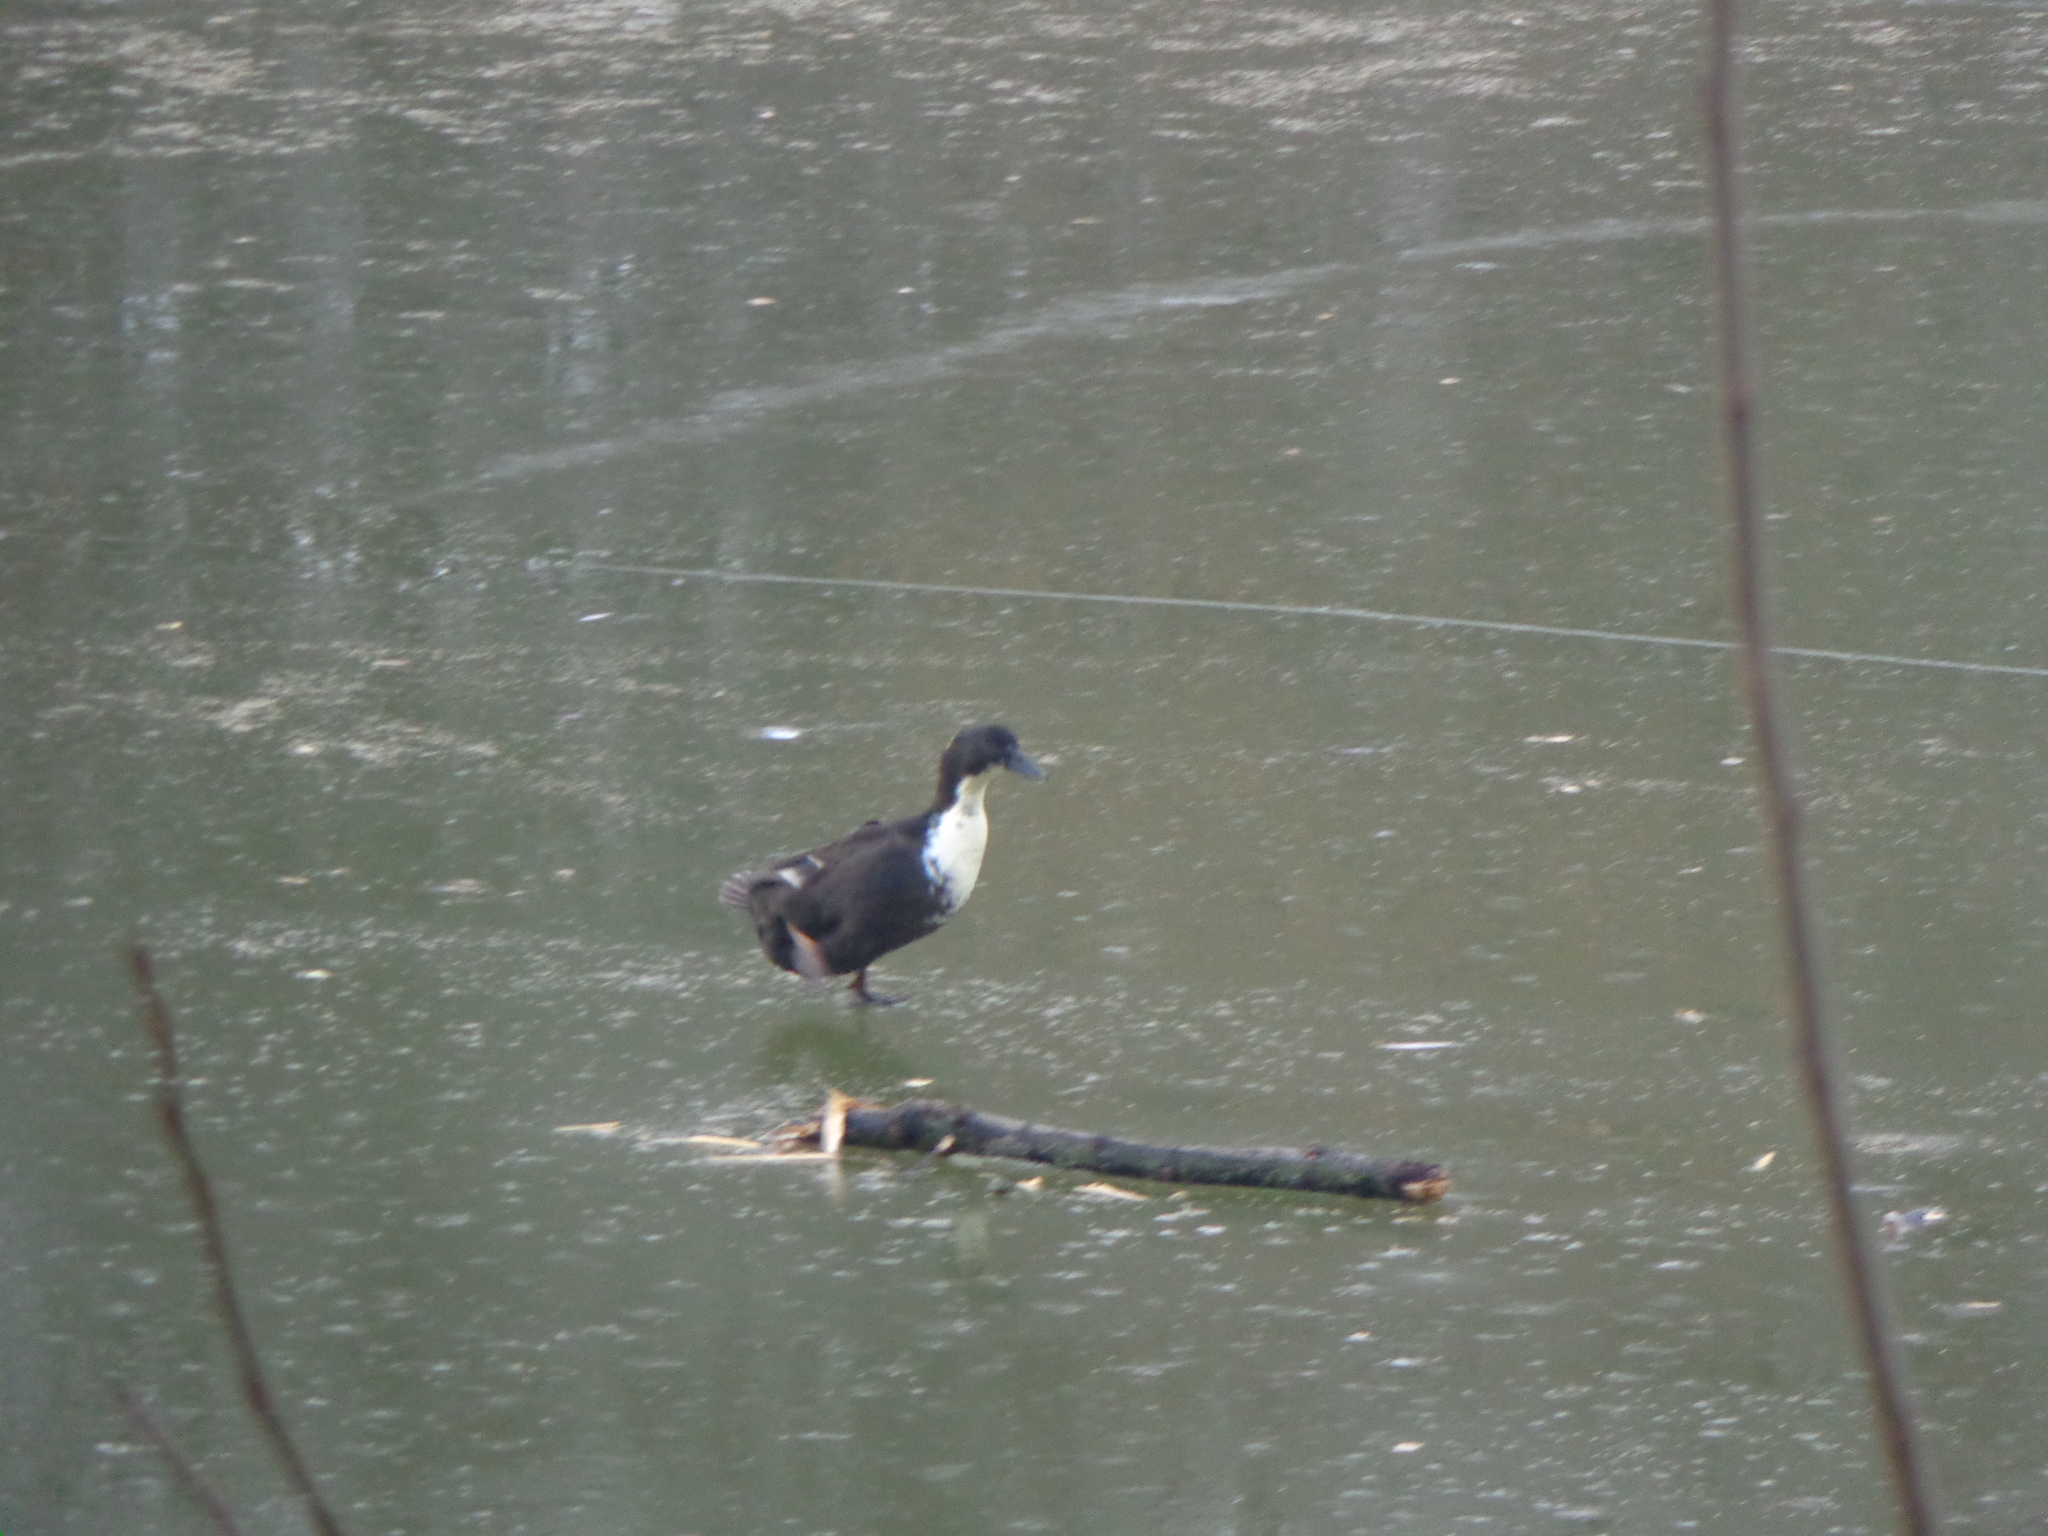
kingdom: Animalia
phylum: Chordata
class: Aves
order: Anseriformes
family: Anatidae
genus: Anas
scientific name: Anas platyrhynchos
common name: Mallard
